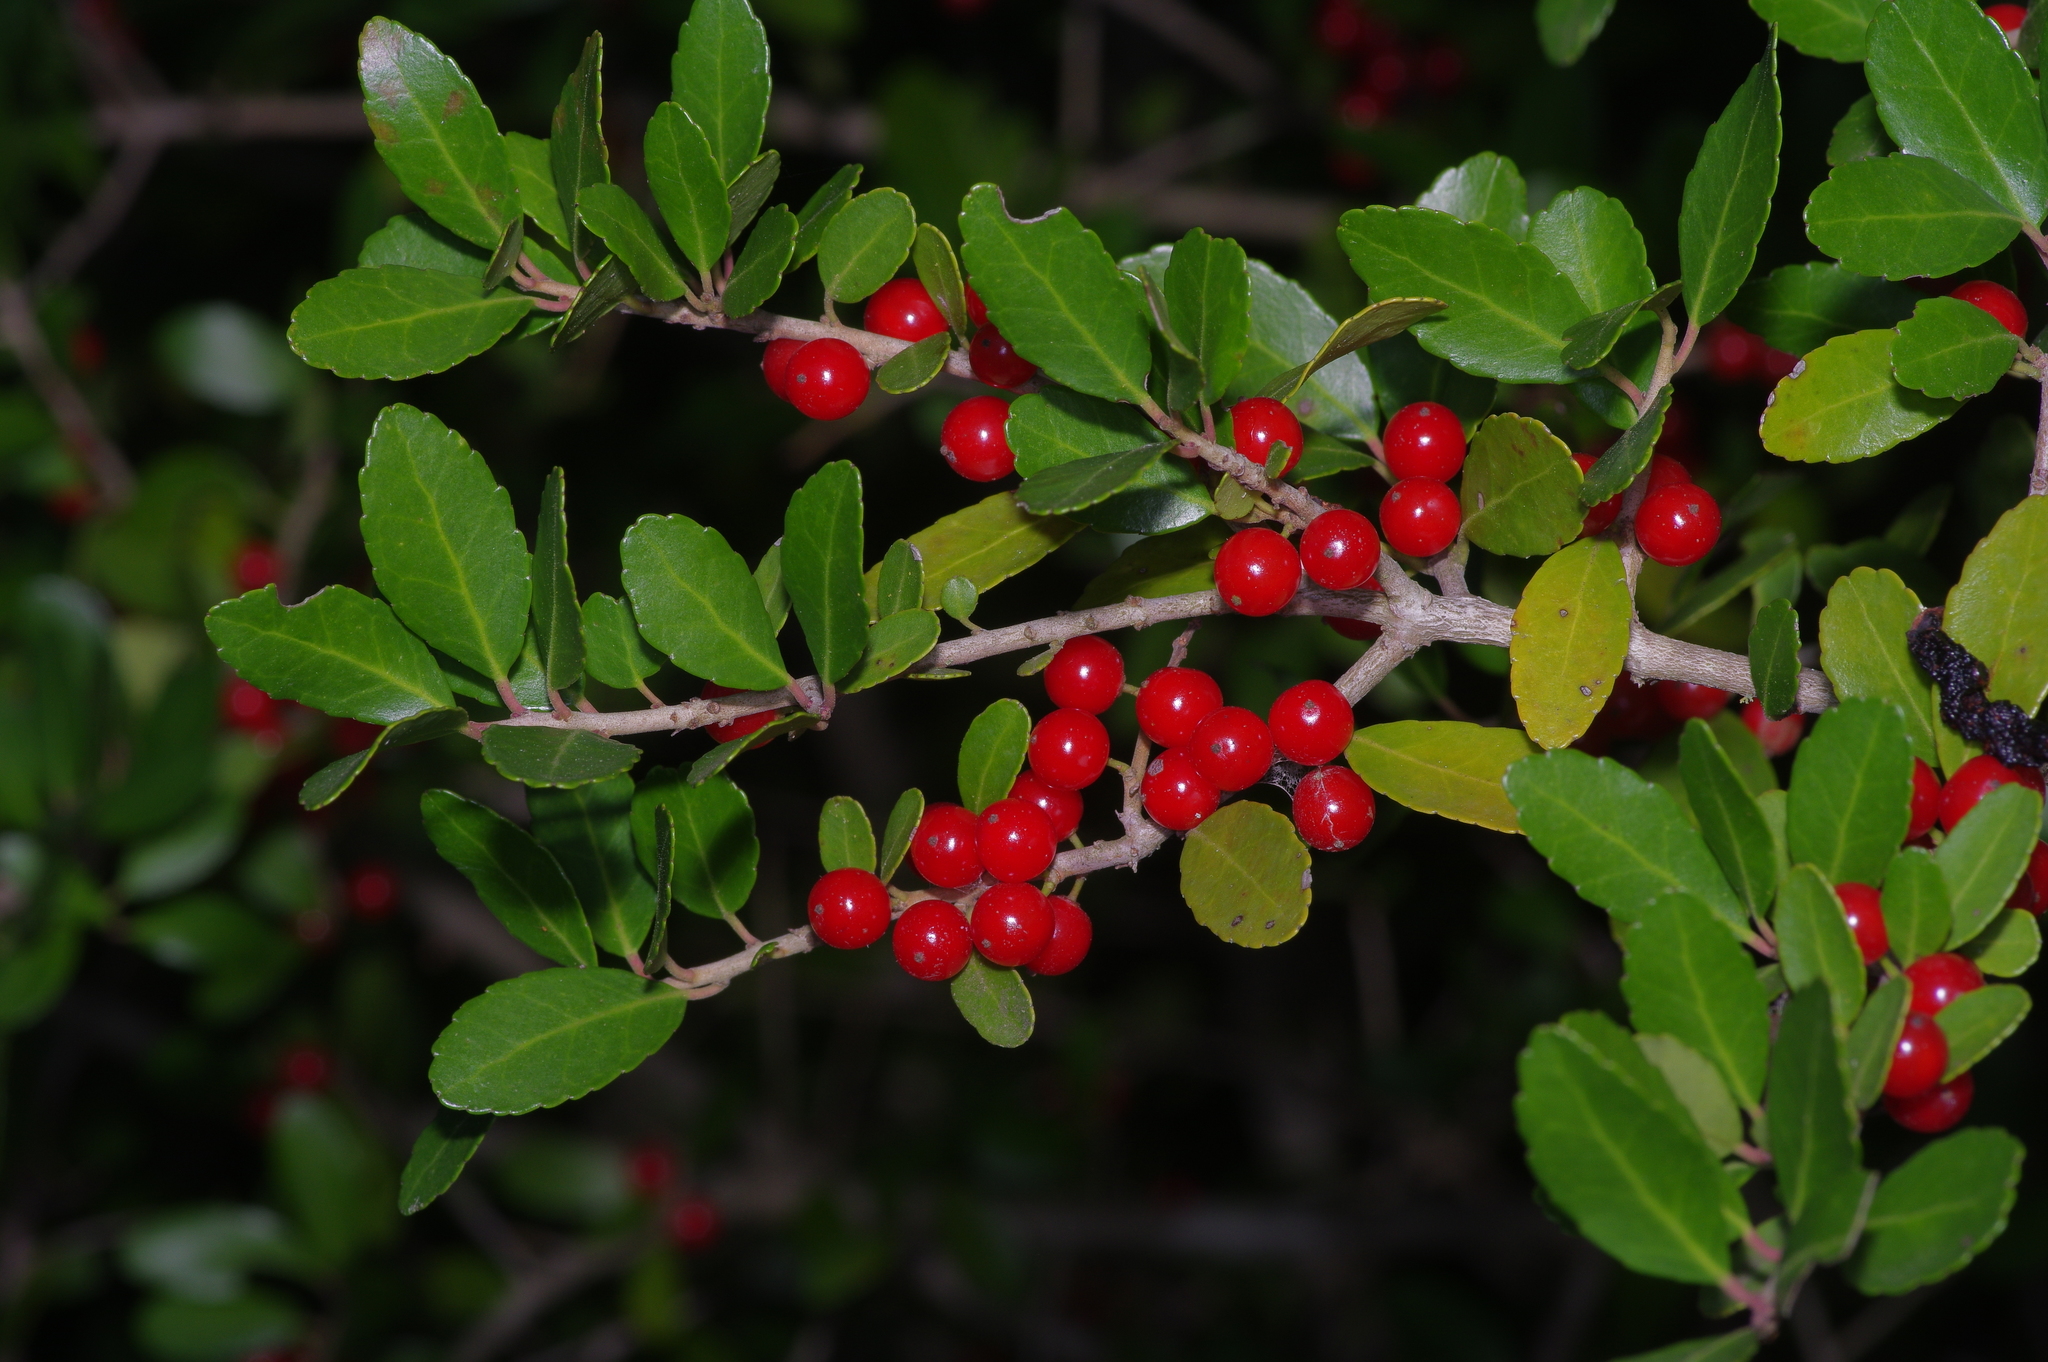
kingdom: Plantae
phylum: Tracheophyta
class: Magnoliopsida
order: Aquifoliales
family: Aquifoliaceae
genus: Ilex
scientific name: Ilex vomitoria
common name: Yaupon holly
